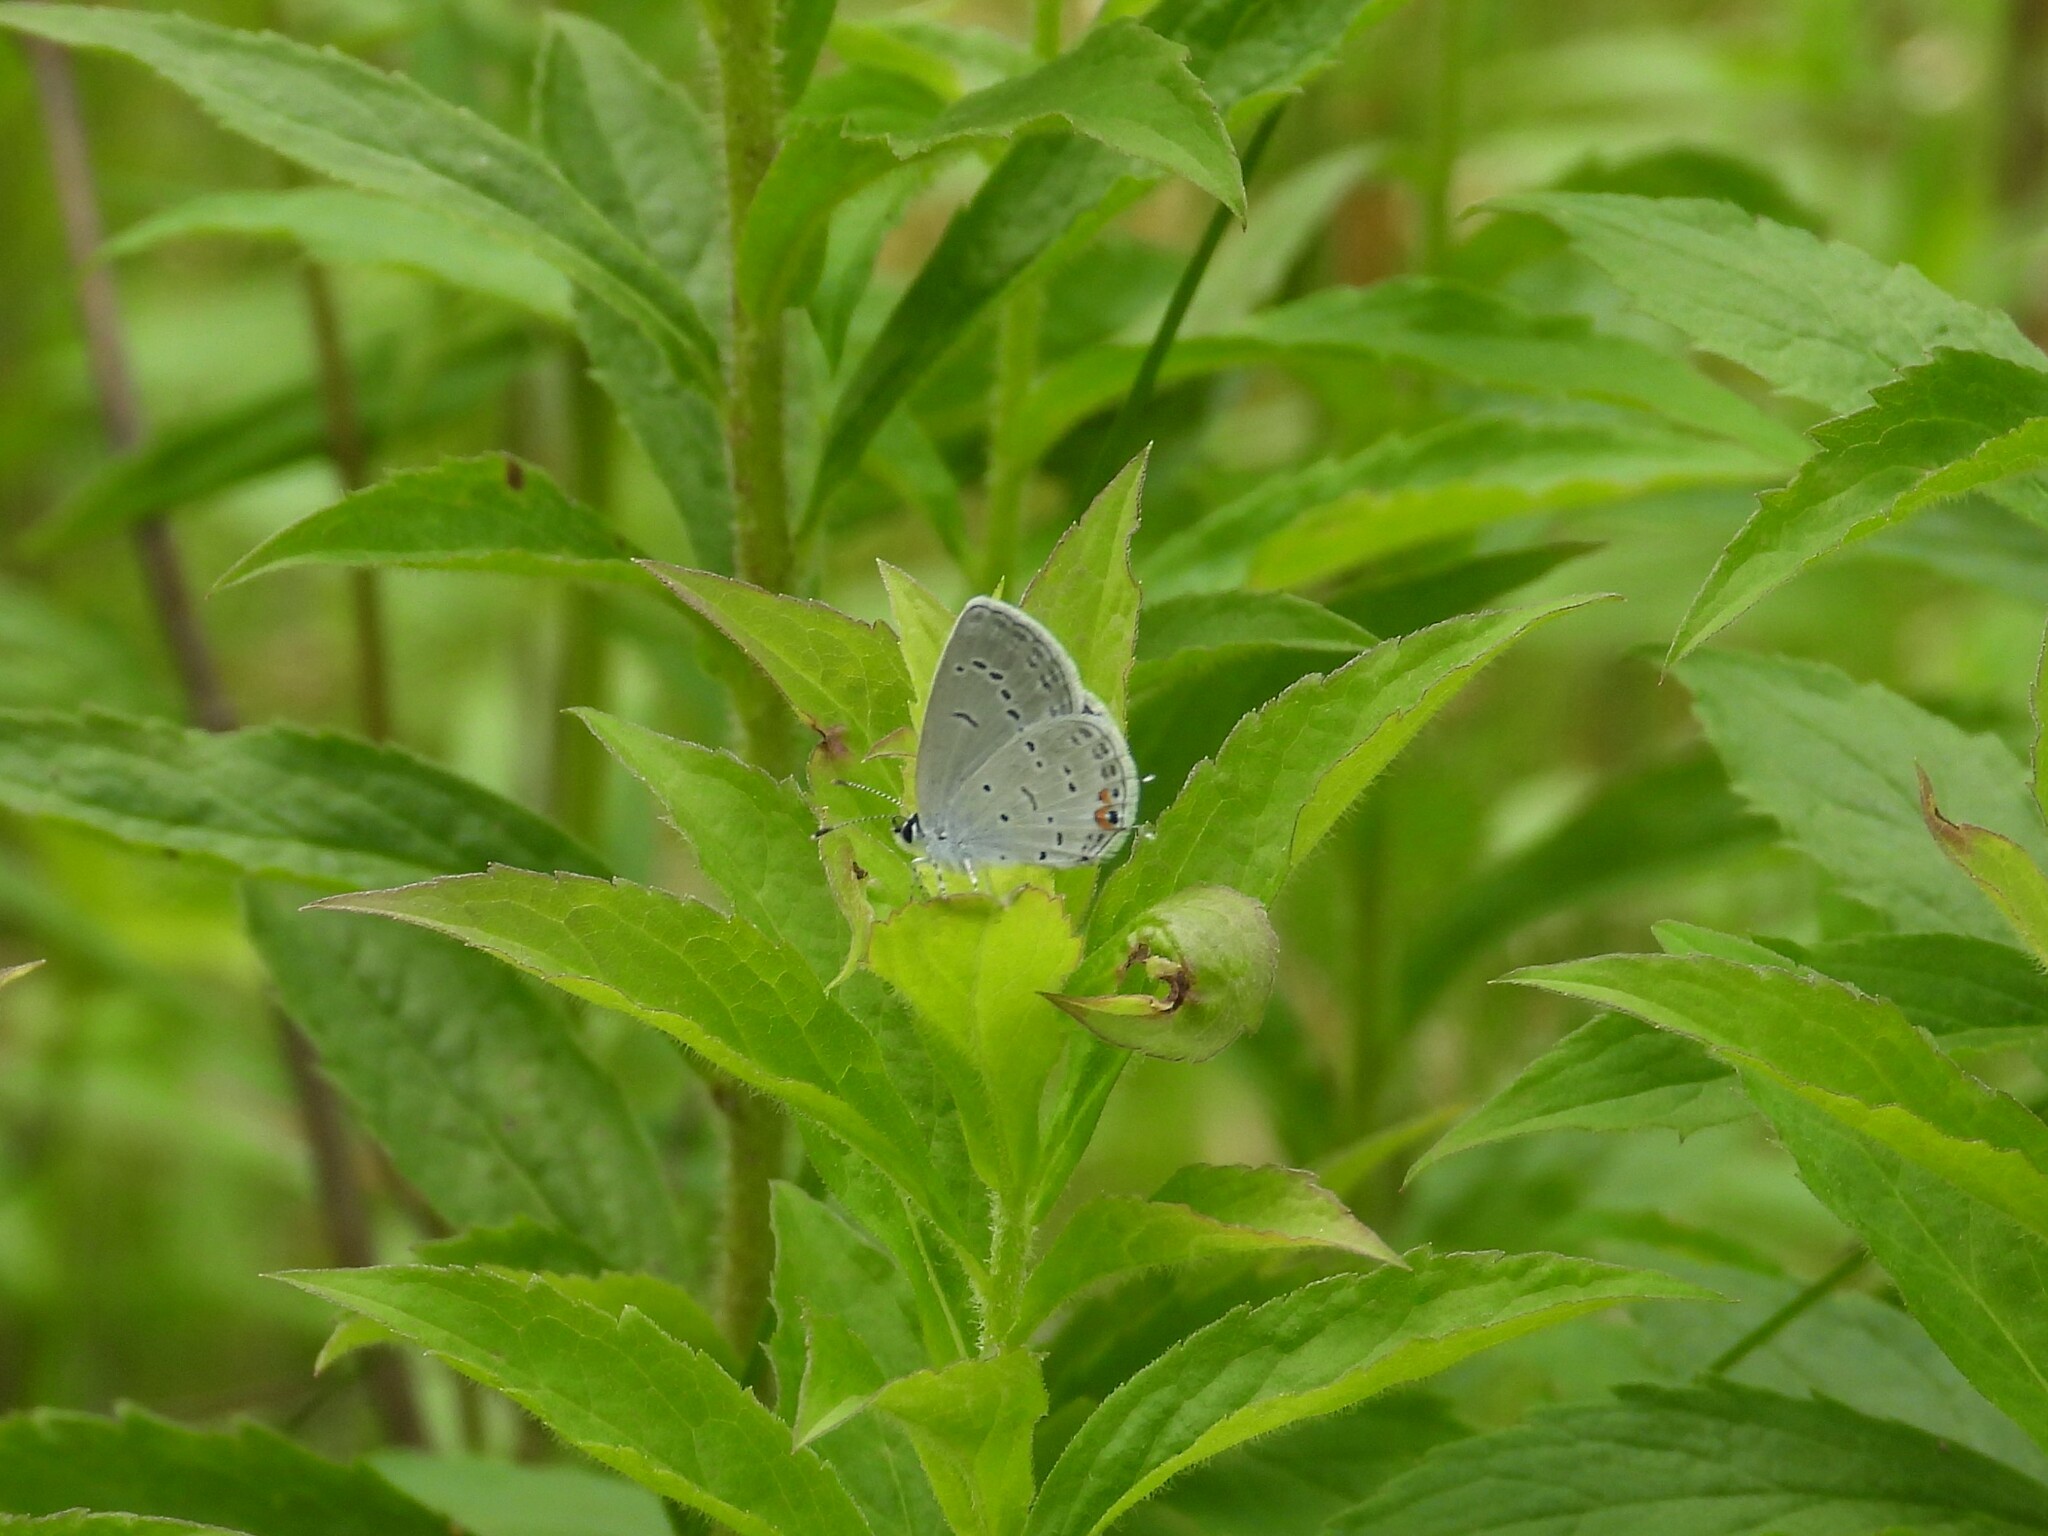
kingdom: Animalia
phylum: Arthropoda
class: Insecta
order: Lepidoptera
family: Lycaenidae
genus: Elkalyce
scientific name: Elkalyce comyntas
